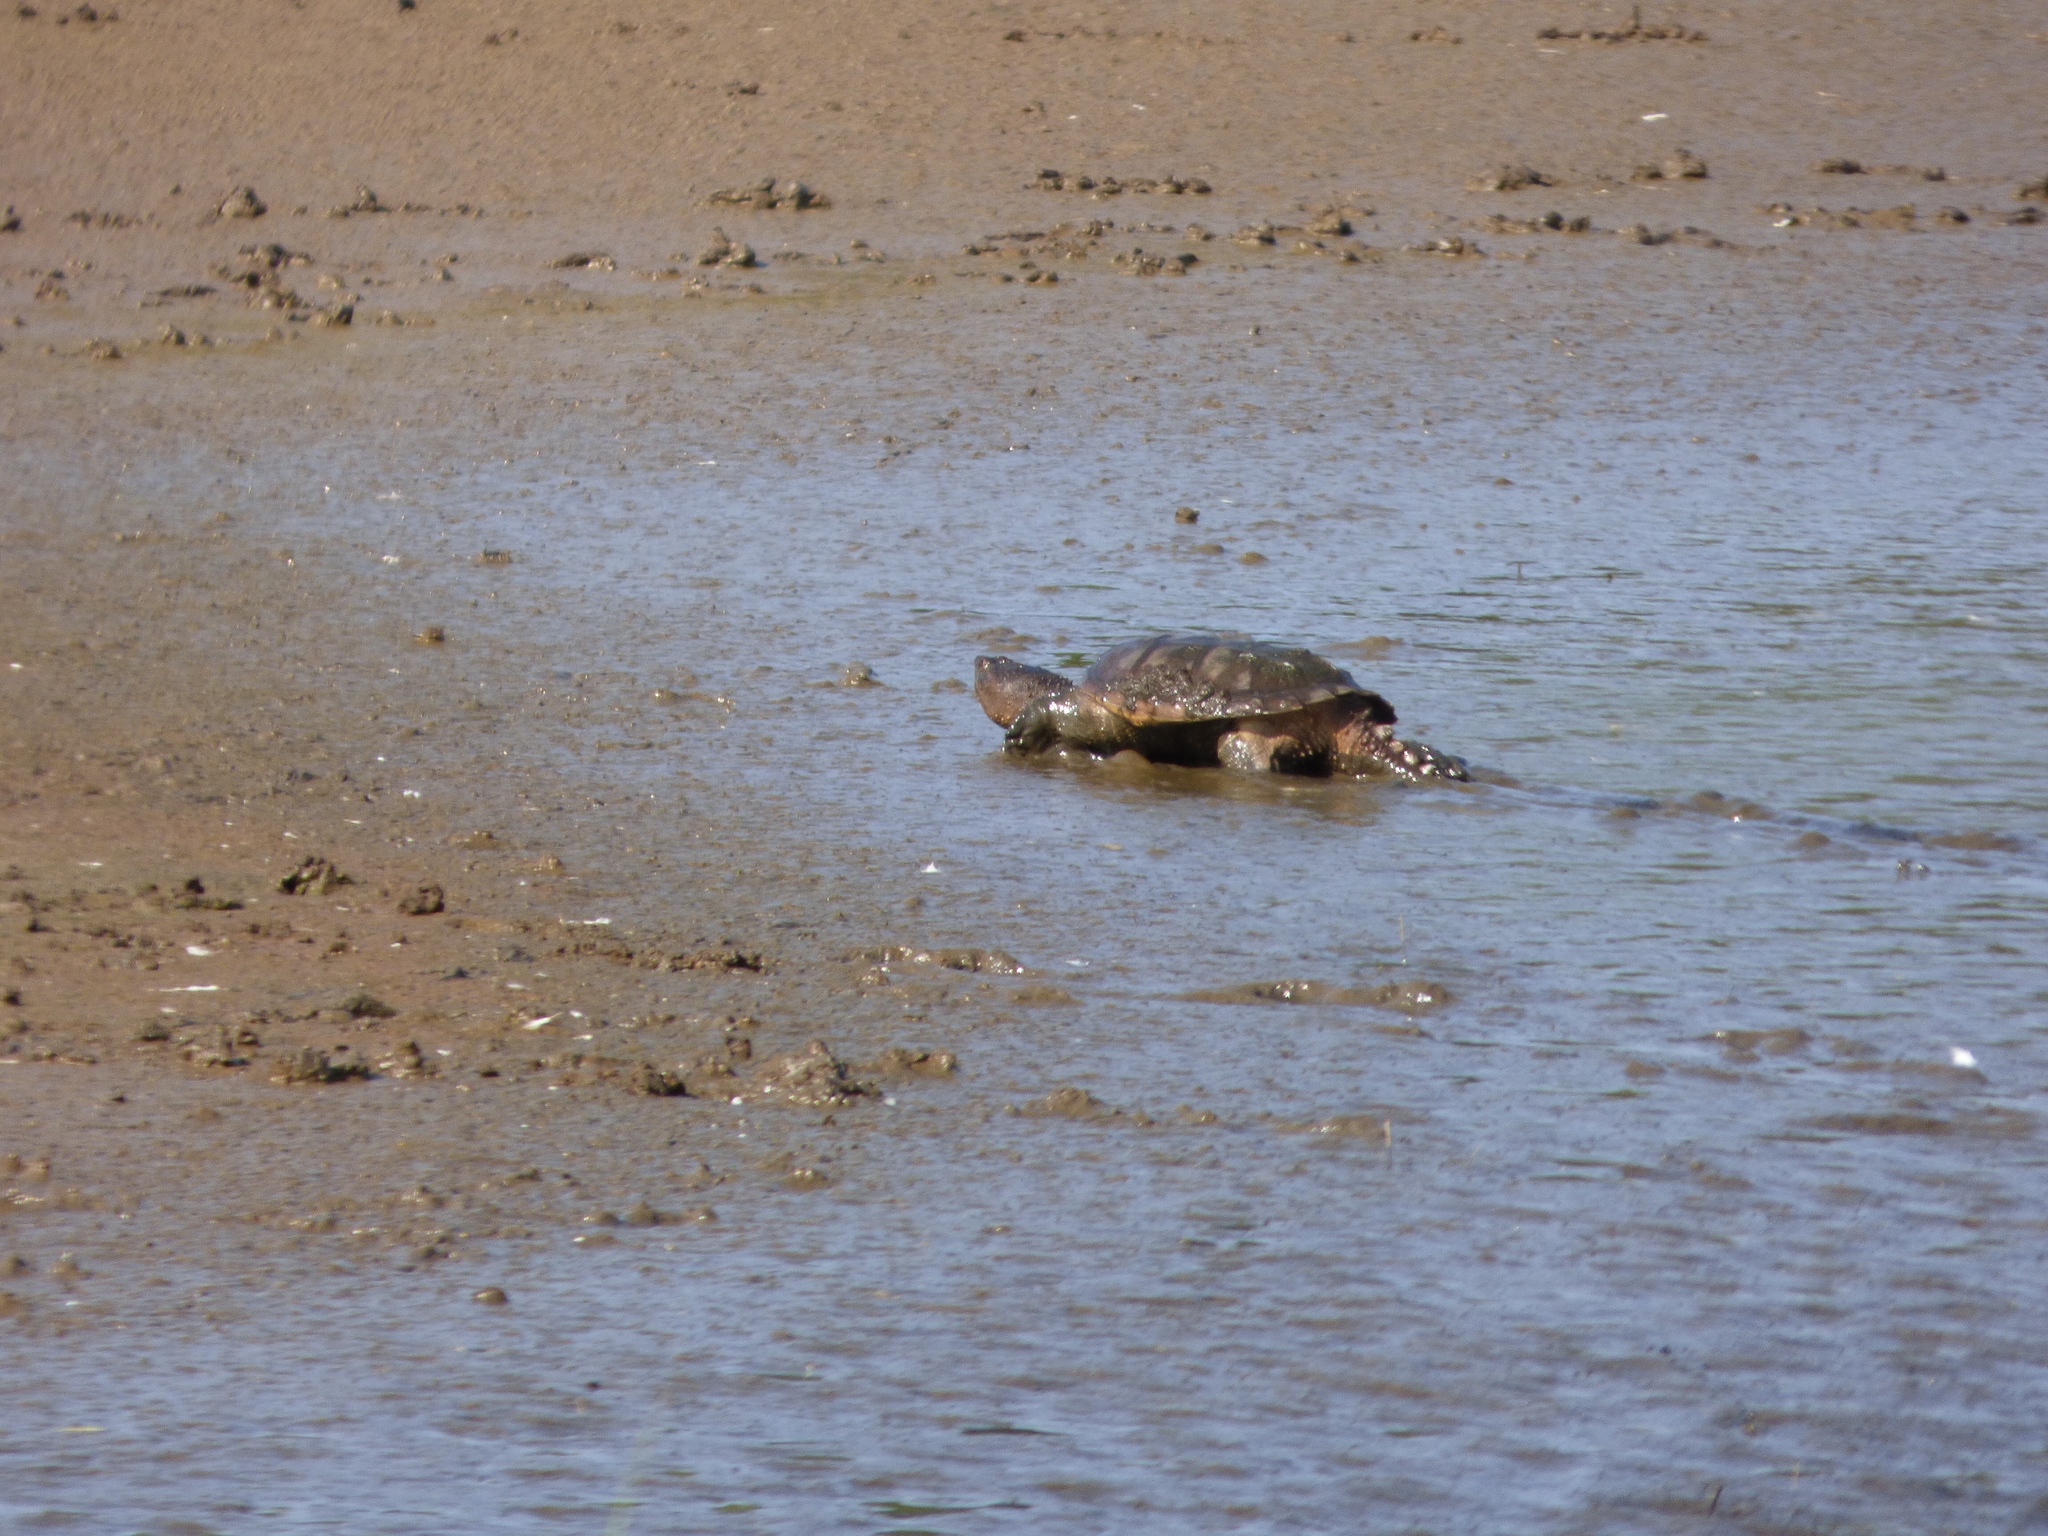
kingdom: Animalia
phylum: Chordata
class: Testudines
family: Chelydridae
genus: Chelydra
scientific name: Chelydra serpentina
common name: Common snapping turtle
